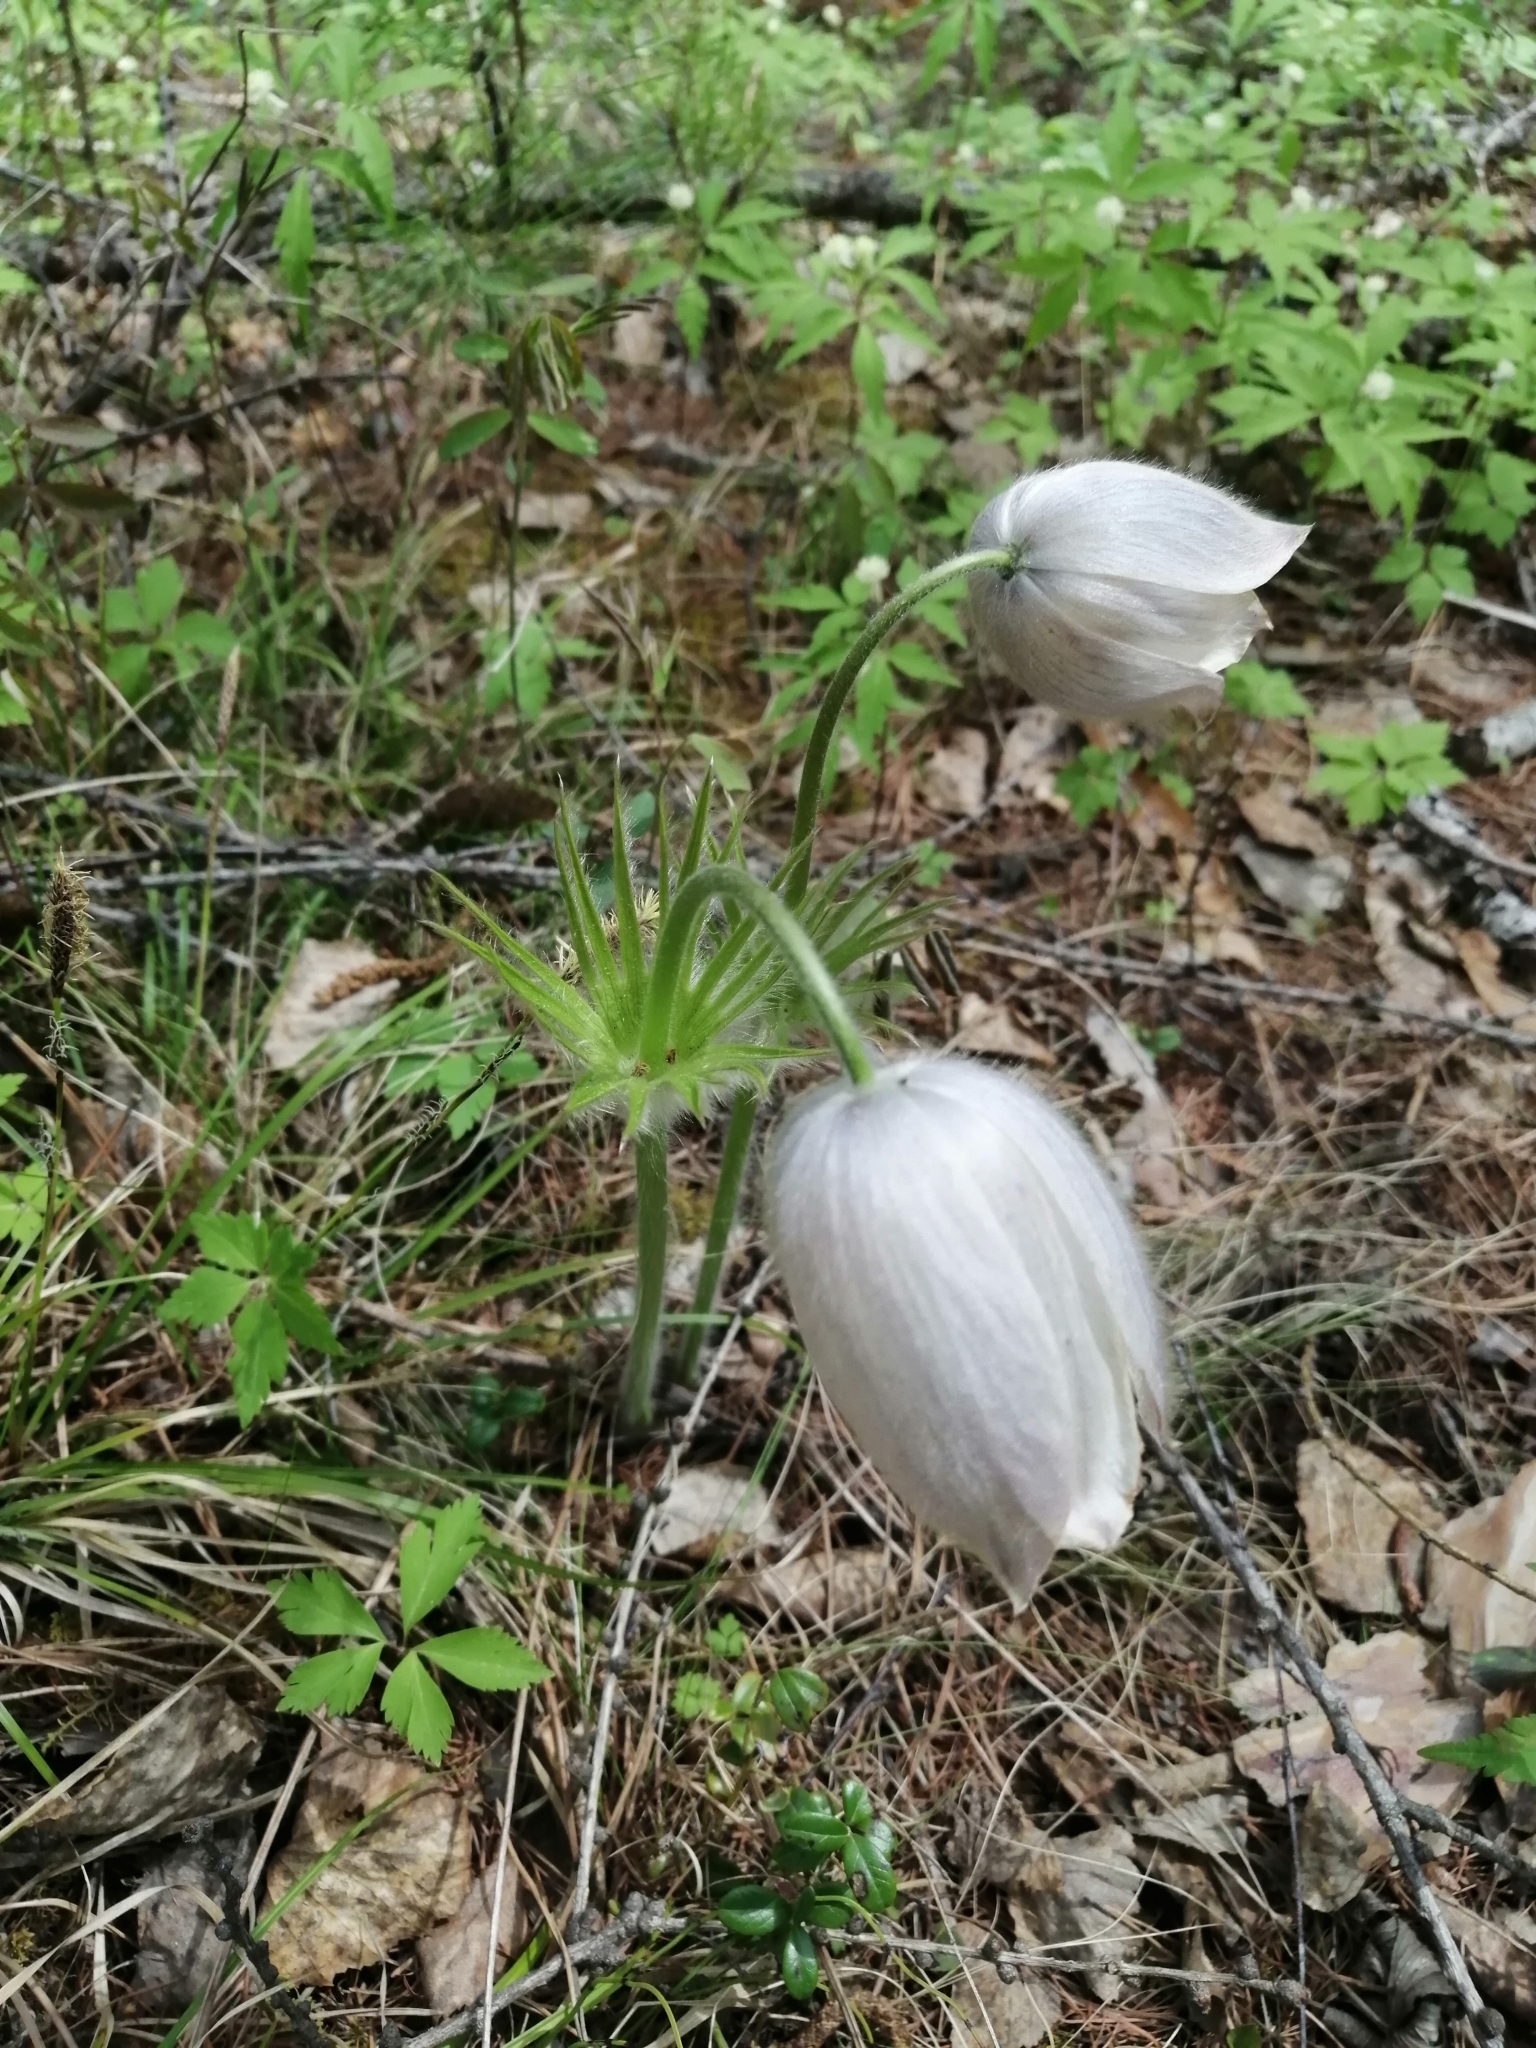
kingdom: Plantae
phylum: Tracheophyta
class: Magnoliopsida
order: Ranunculales
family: Ranunculaceae
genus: Pulsatilla
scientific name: Pulsatilla patens
